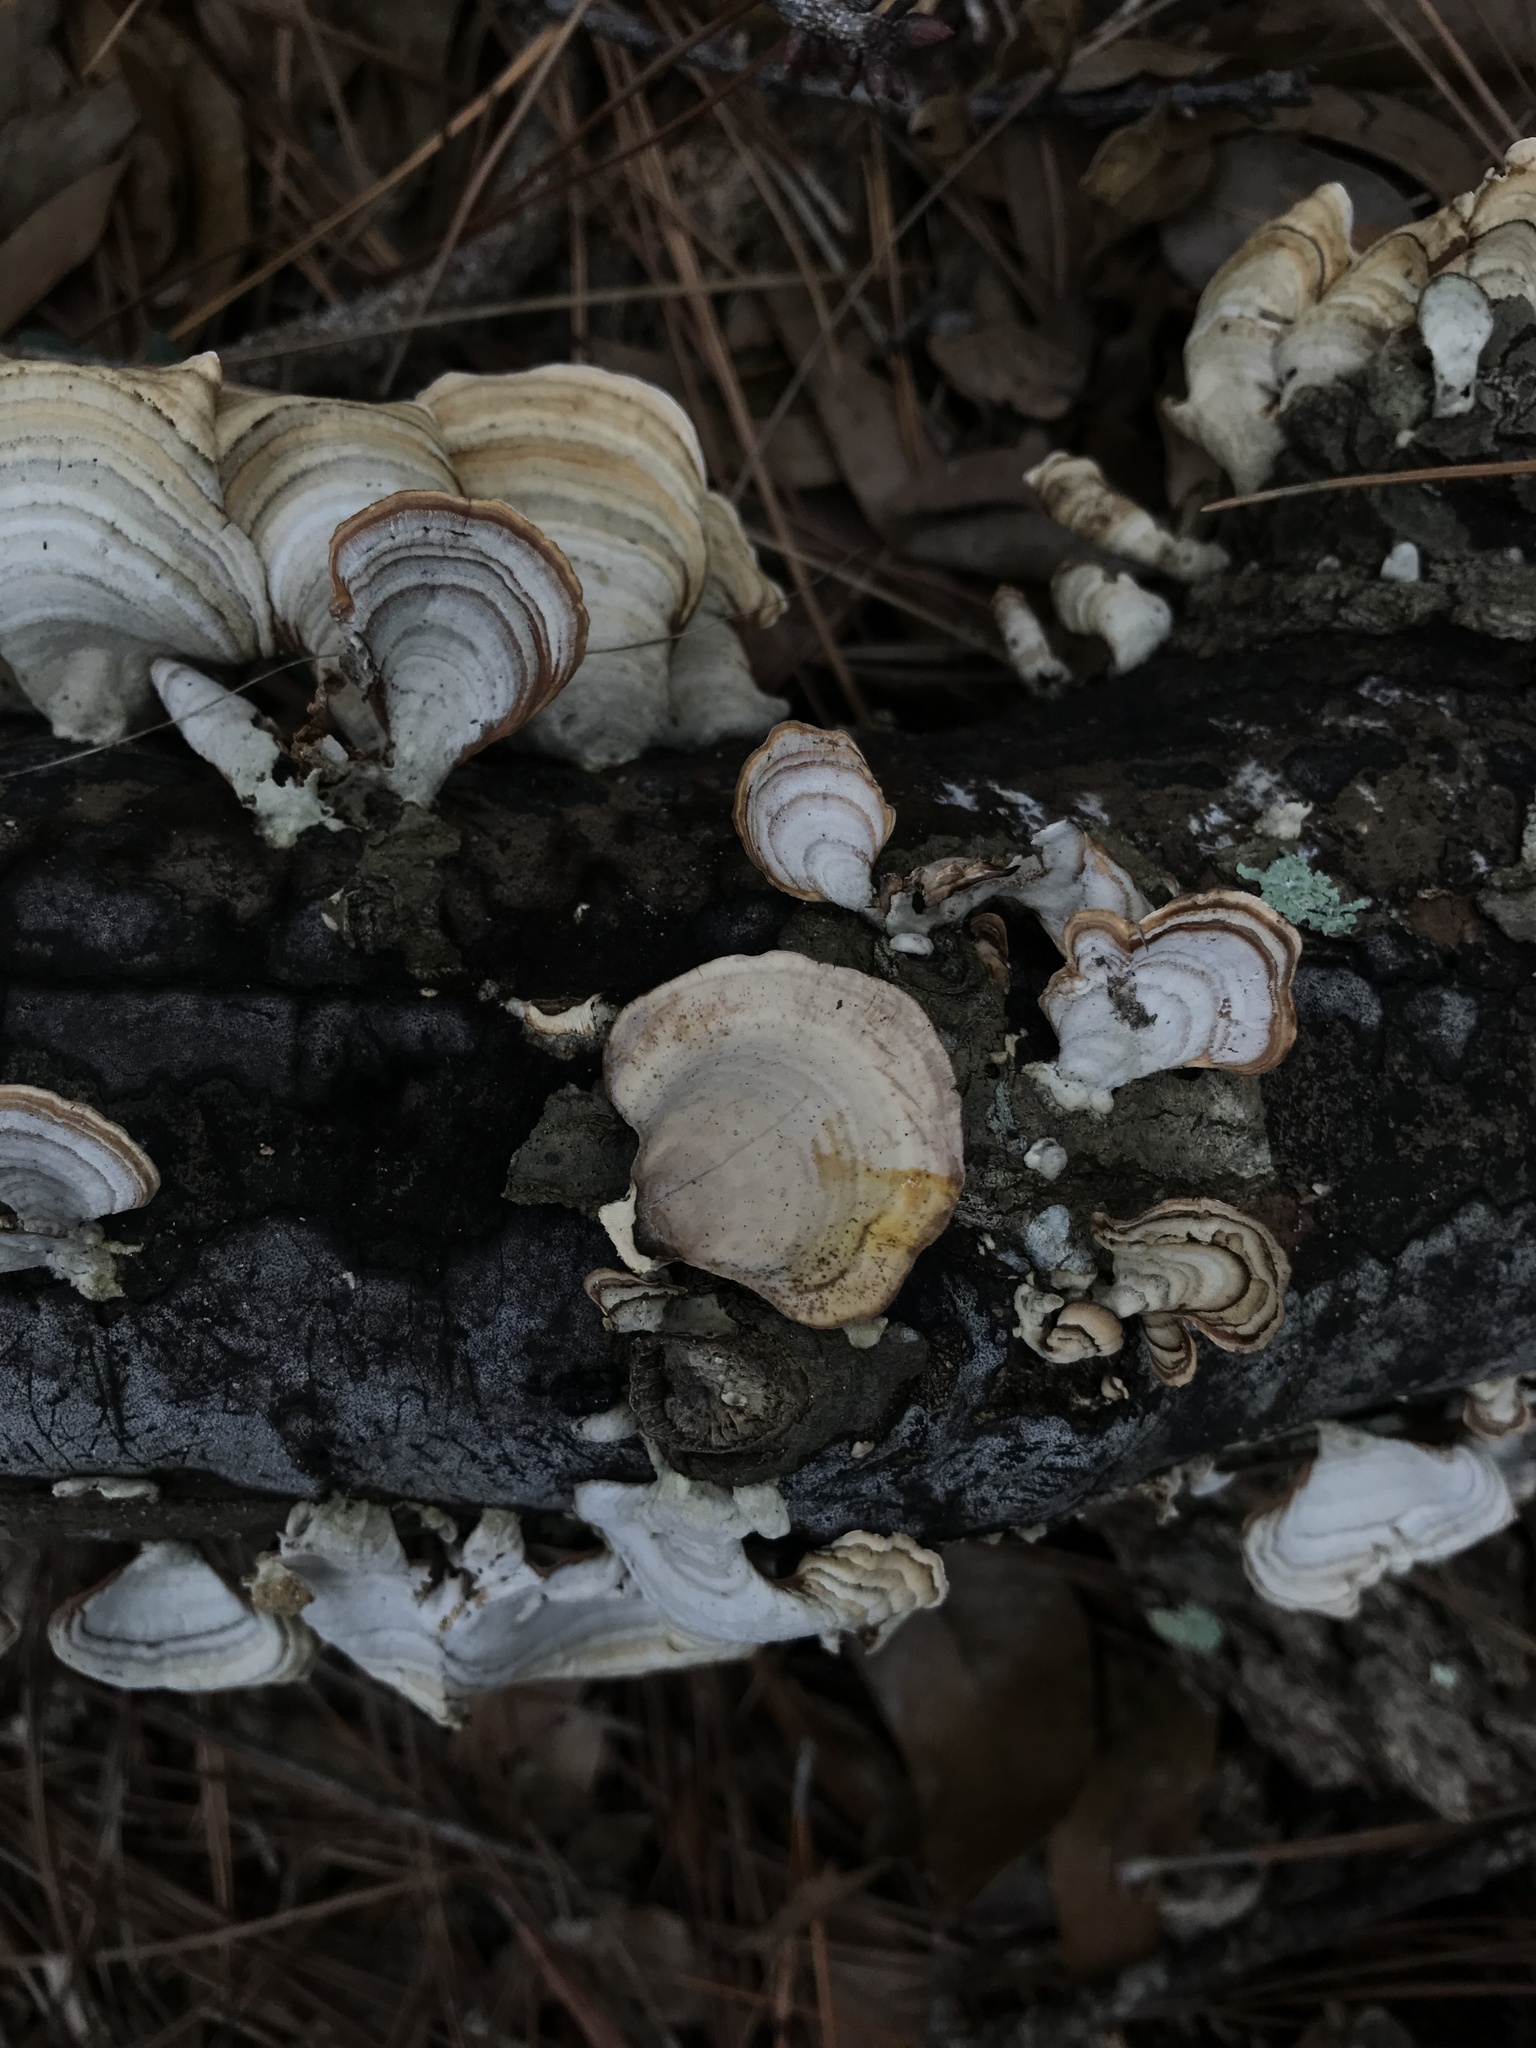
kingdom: Fungi
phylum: Basidiomycota
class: Agaricomycetes
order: Russulales
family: Stereaceae
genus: Stereum
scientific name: Stereum lobatum
